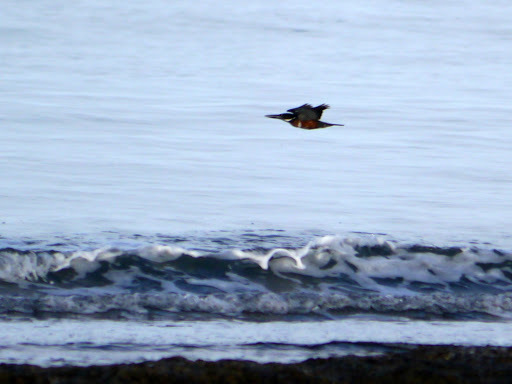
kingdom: Animalia
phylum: Chordata
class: Aves
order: Coraciiformes
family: Alcedinidae
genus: Megaceryle
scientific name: Megaceryle maxima
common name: Giant kingfisher
